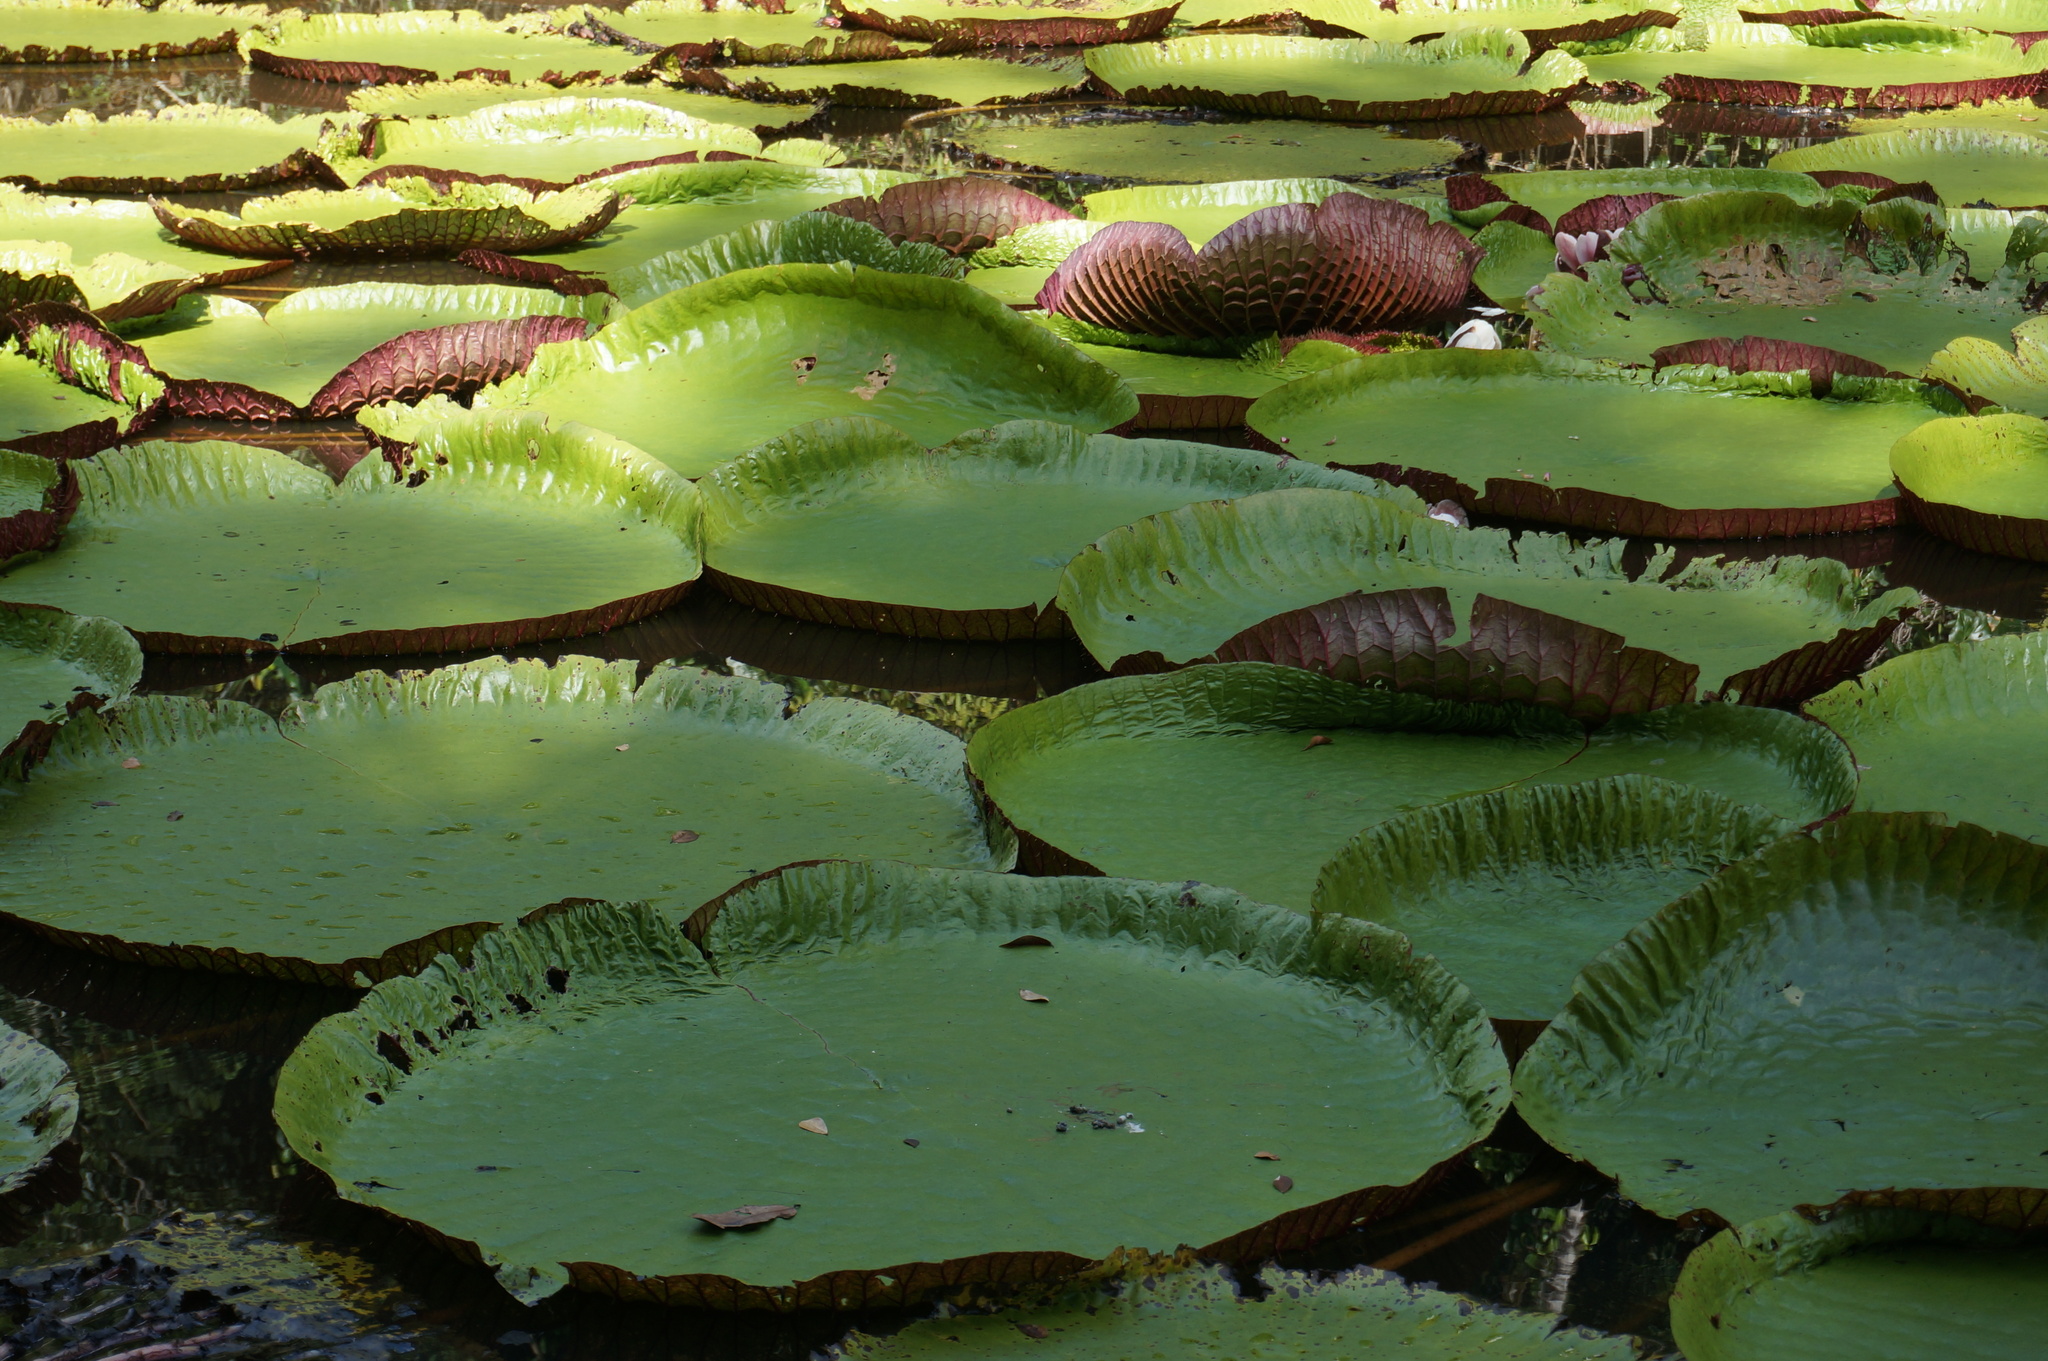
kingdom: Plantae
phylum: Tracheophyta
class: Magnoliopsida
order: Nymphaeales
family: Nymphaeaceae
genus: Victoria
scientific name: Victoria amazonica
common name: Amazon water-lily
